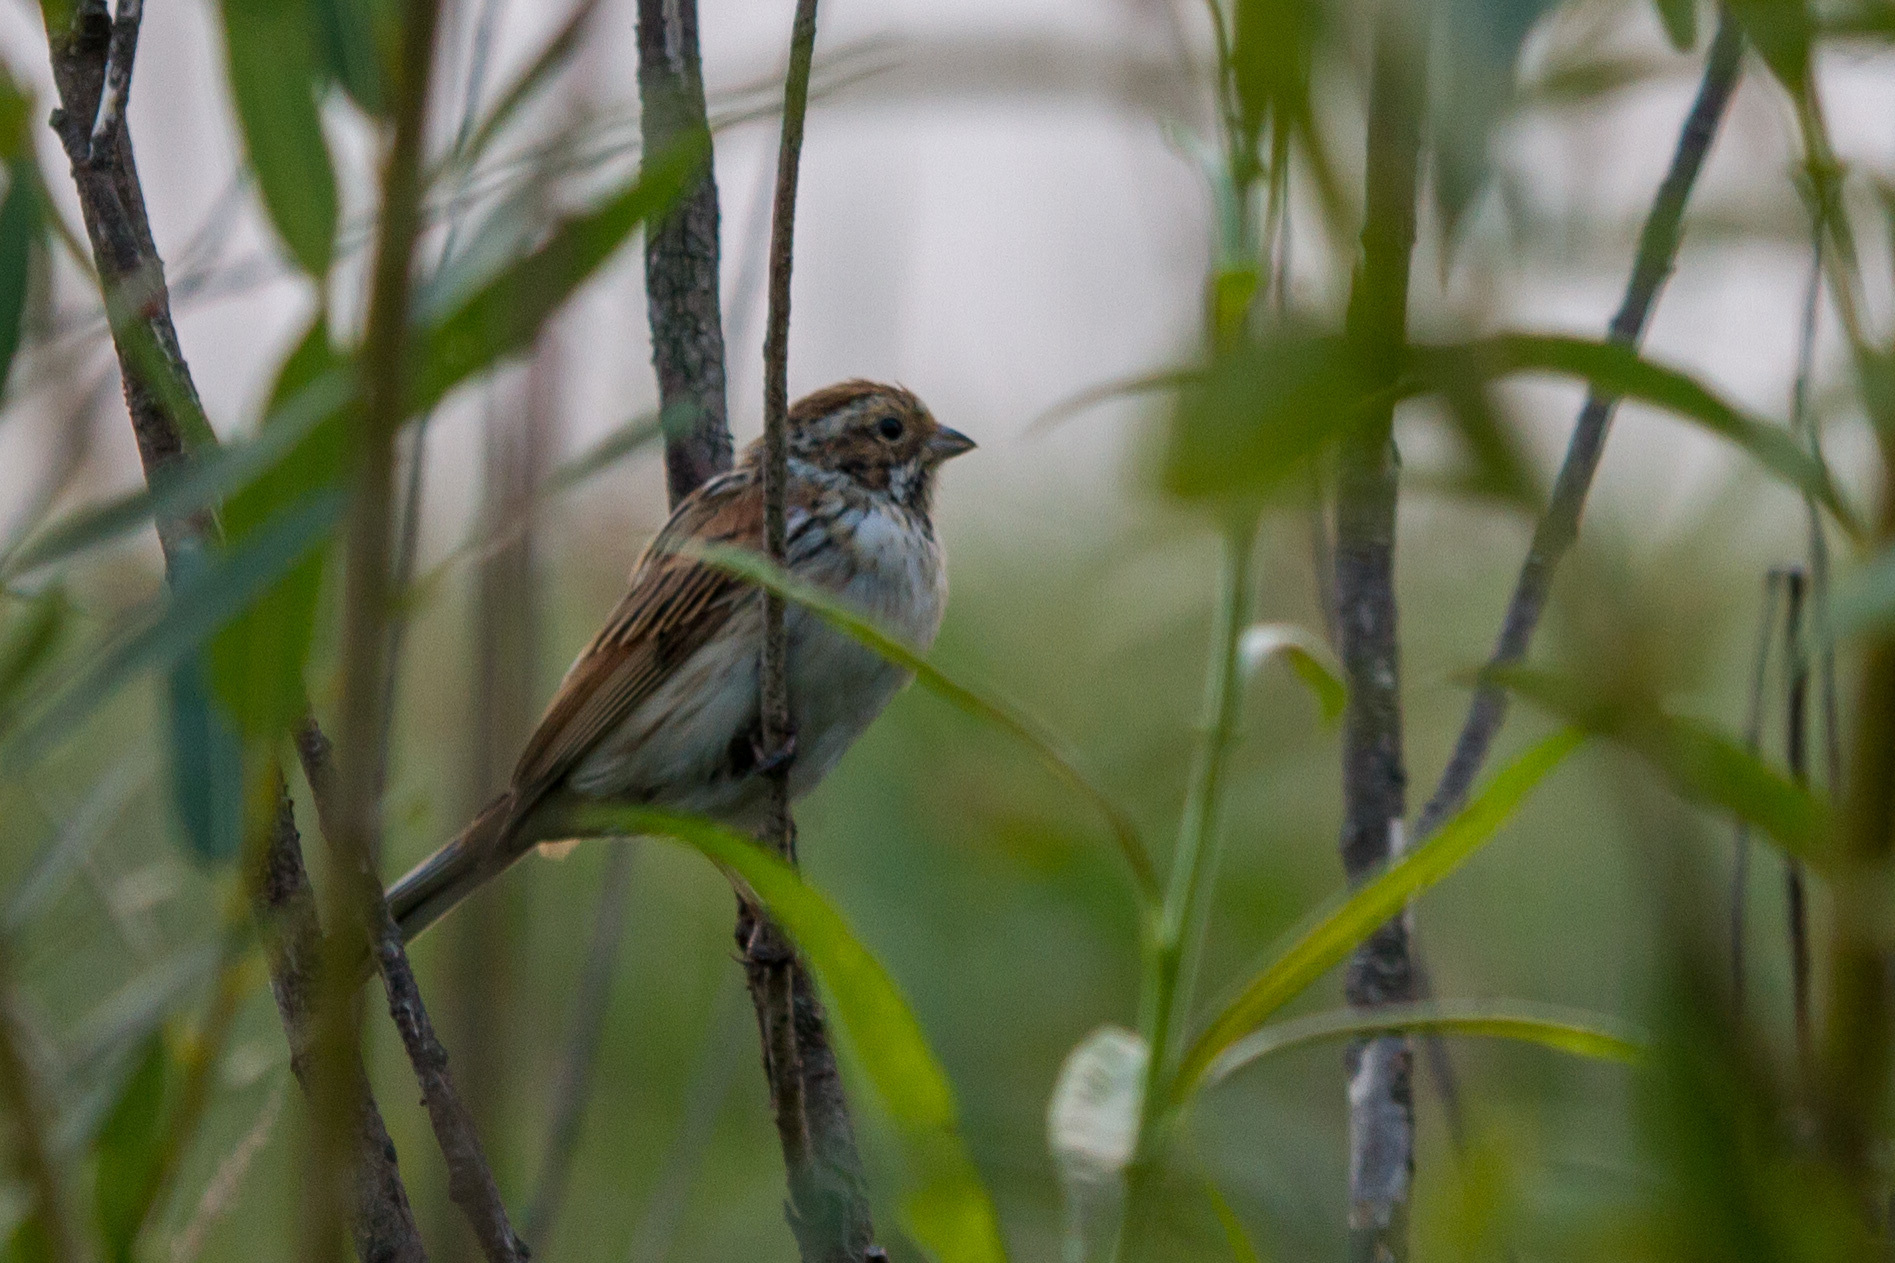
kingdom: Animalia
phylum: Chordata
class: Aves
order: Passeriformes
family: Emberizidae
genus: Emberiza
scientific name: Emberiza schoeniclus
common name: Reed bunting
